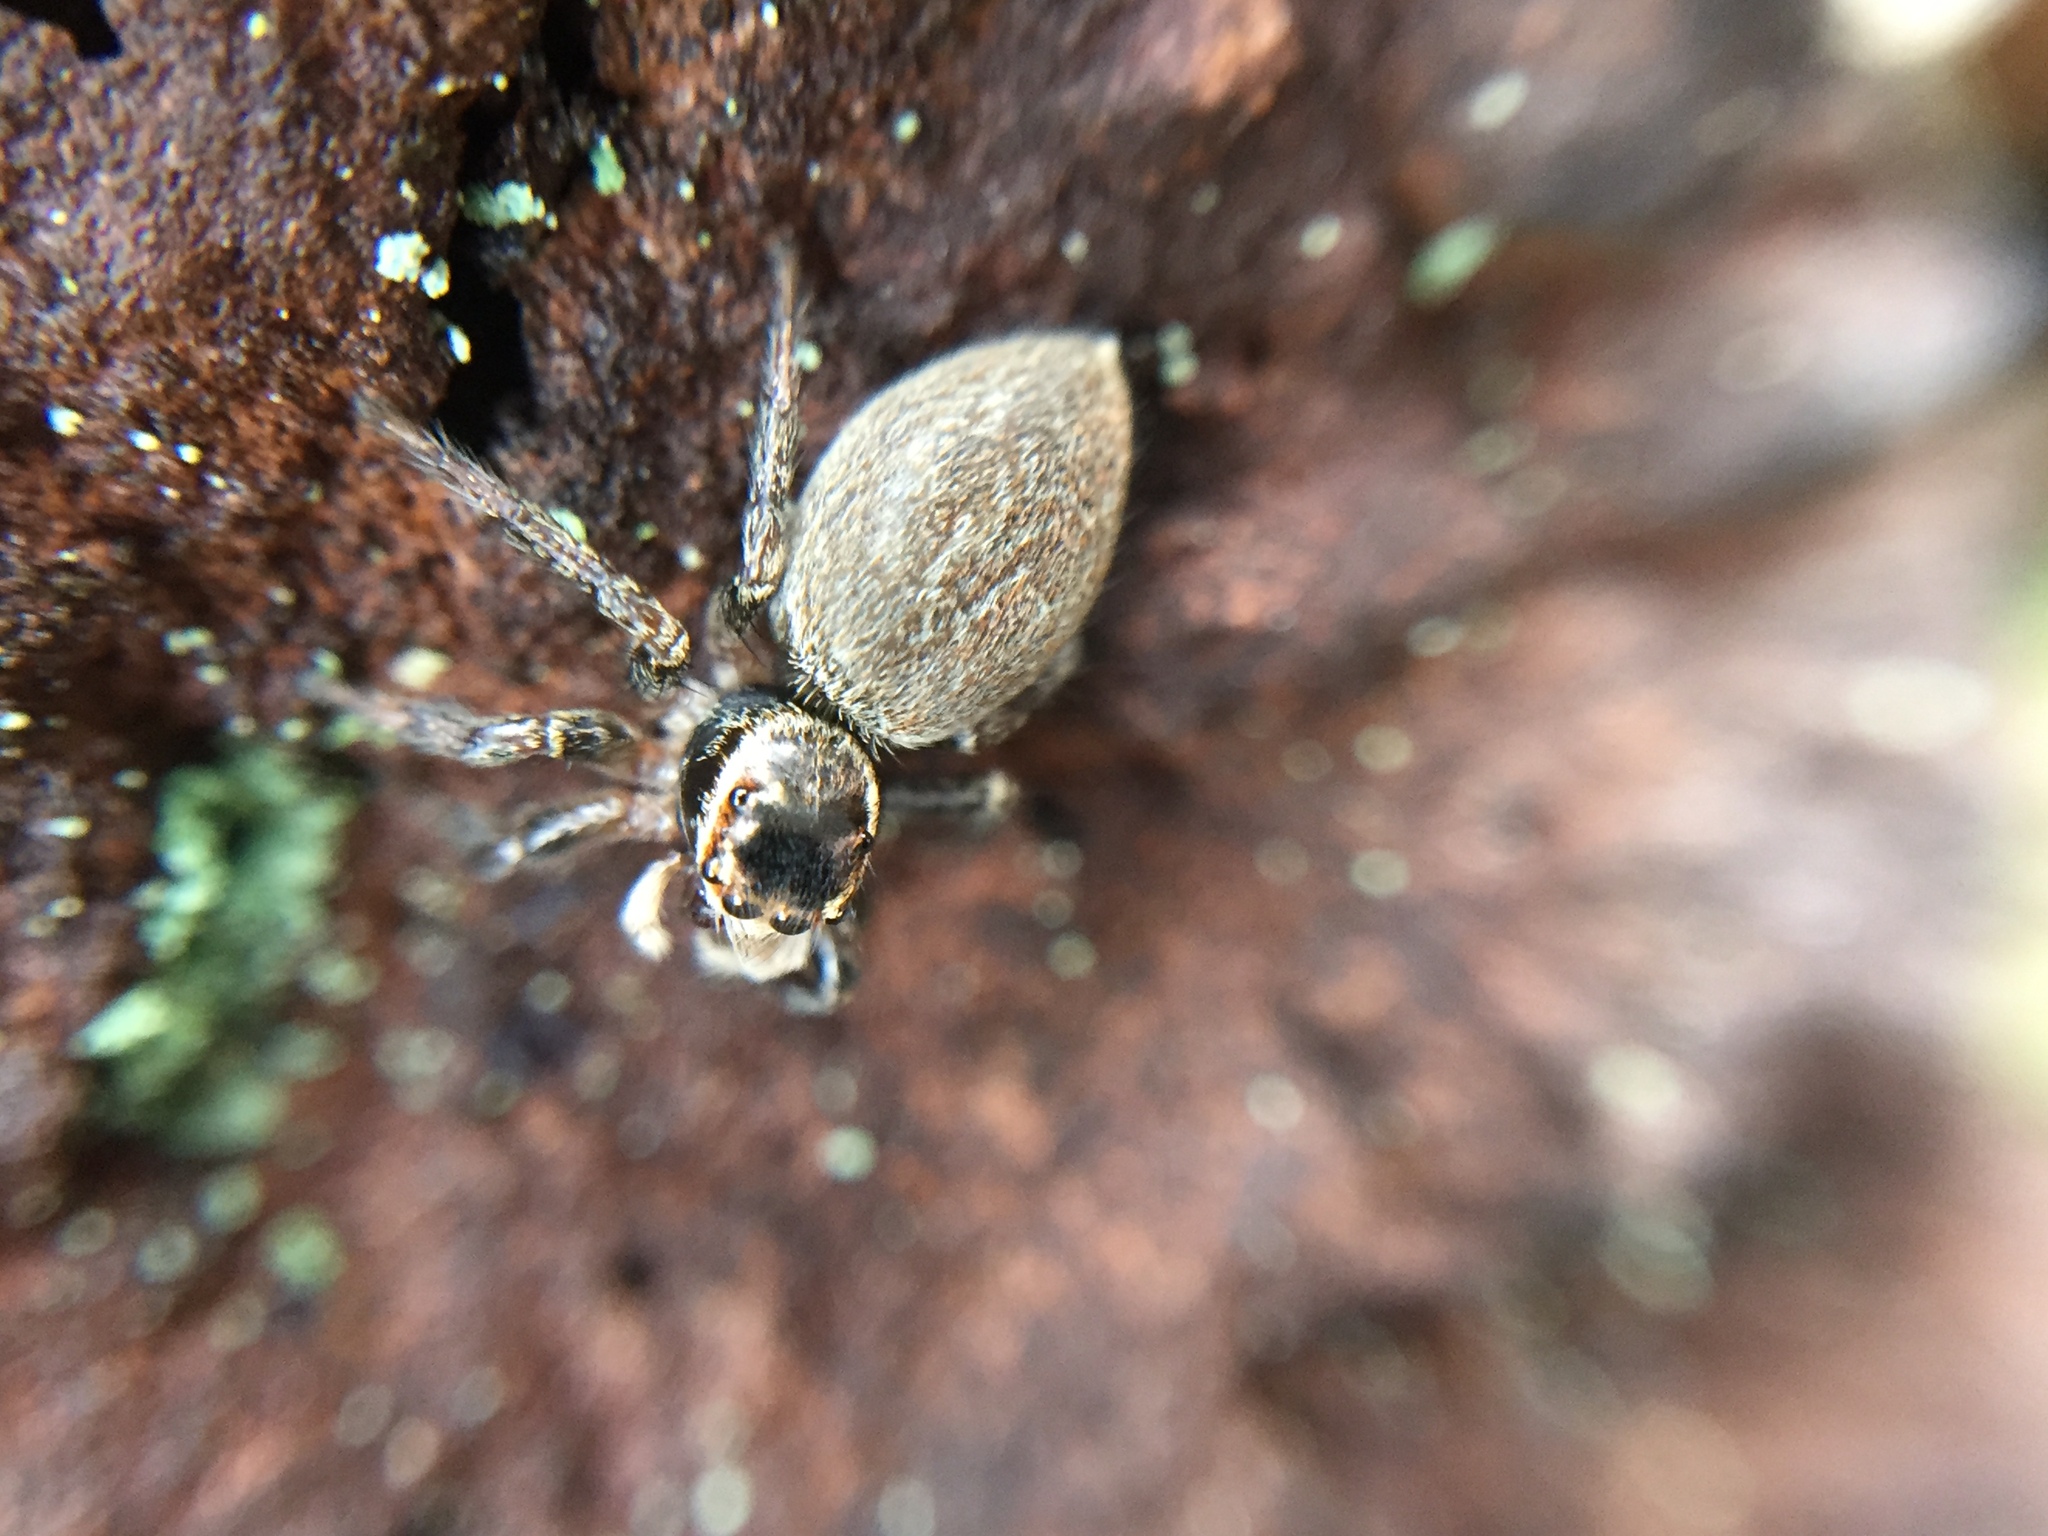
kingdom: Animalia
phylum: Arthropoda
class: Arachnida
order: Araneae
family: Salticidae
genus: Maratus
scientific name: Maratus griseus
